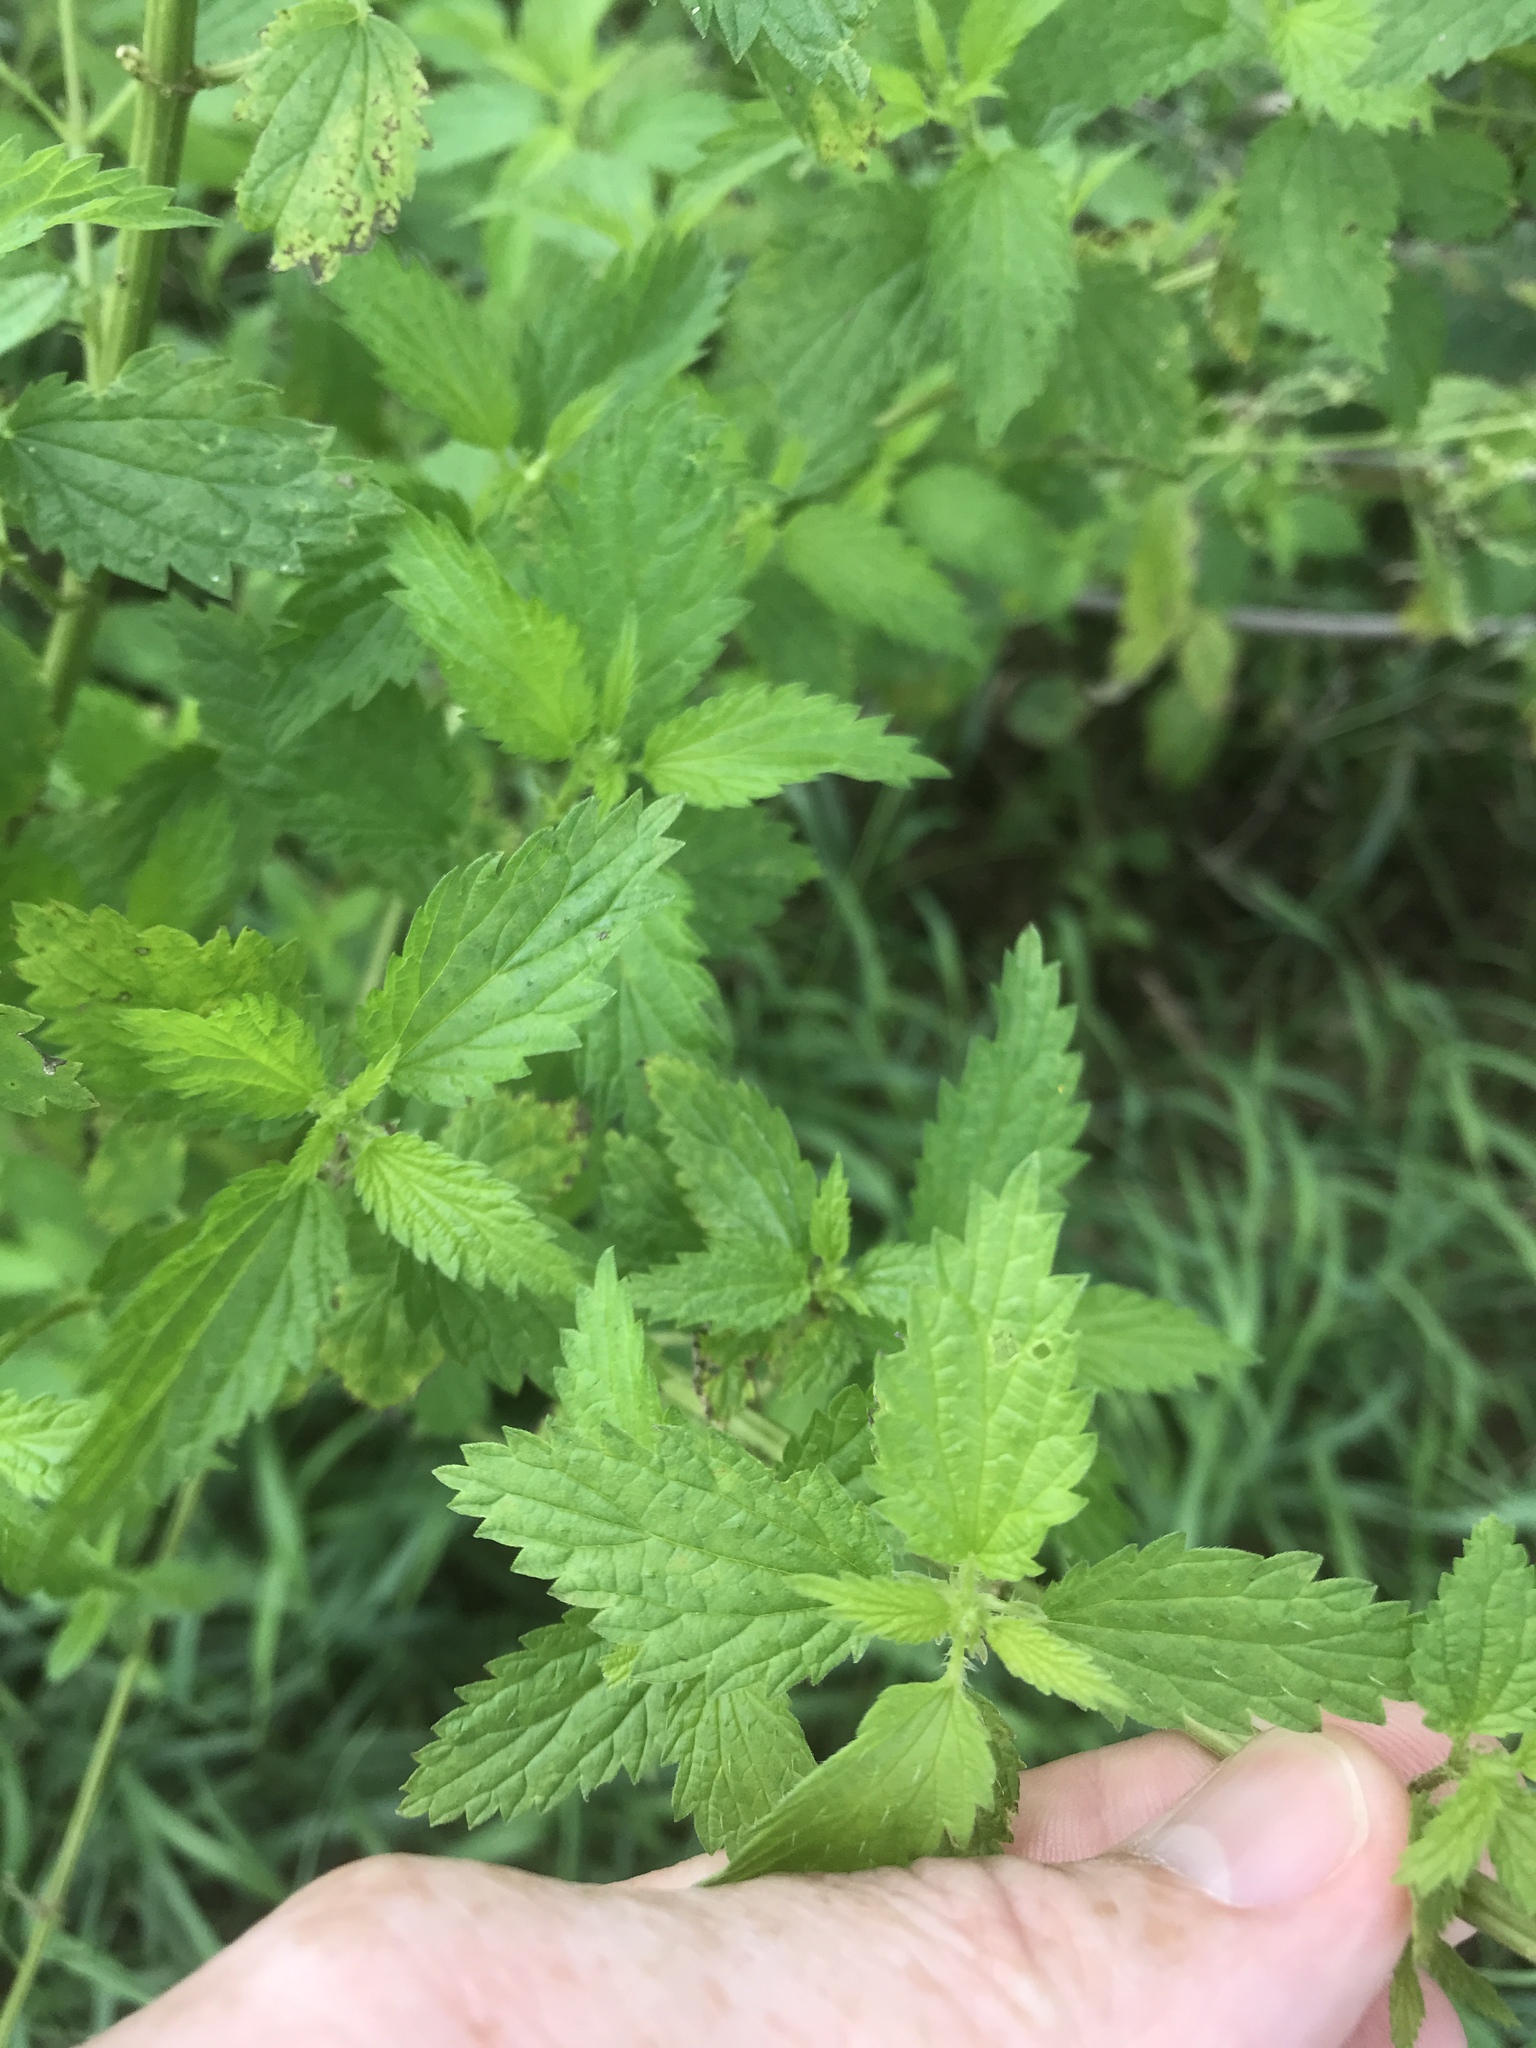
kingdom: Plantae
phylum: Tracheophyta
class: Magnoliopsida
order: Rosales
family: Urticaceae
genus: Urtica
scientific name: Urtica dioica
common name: Common nettle
